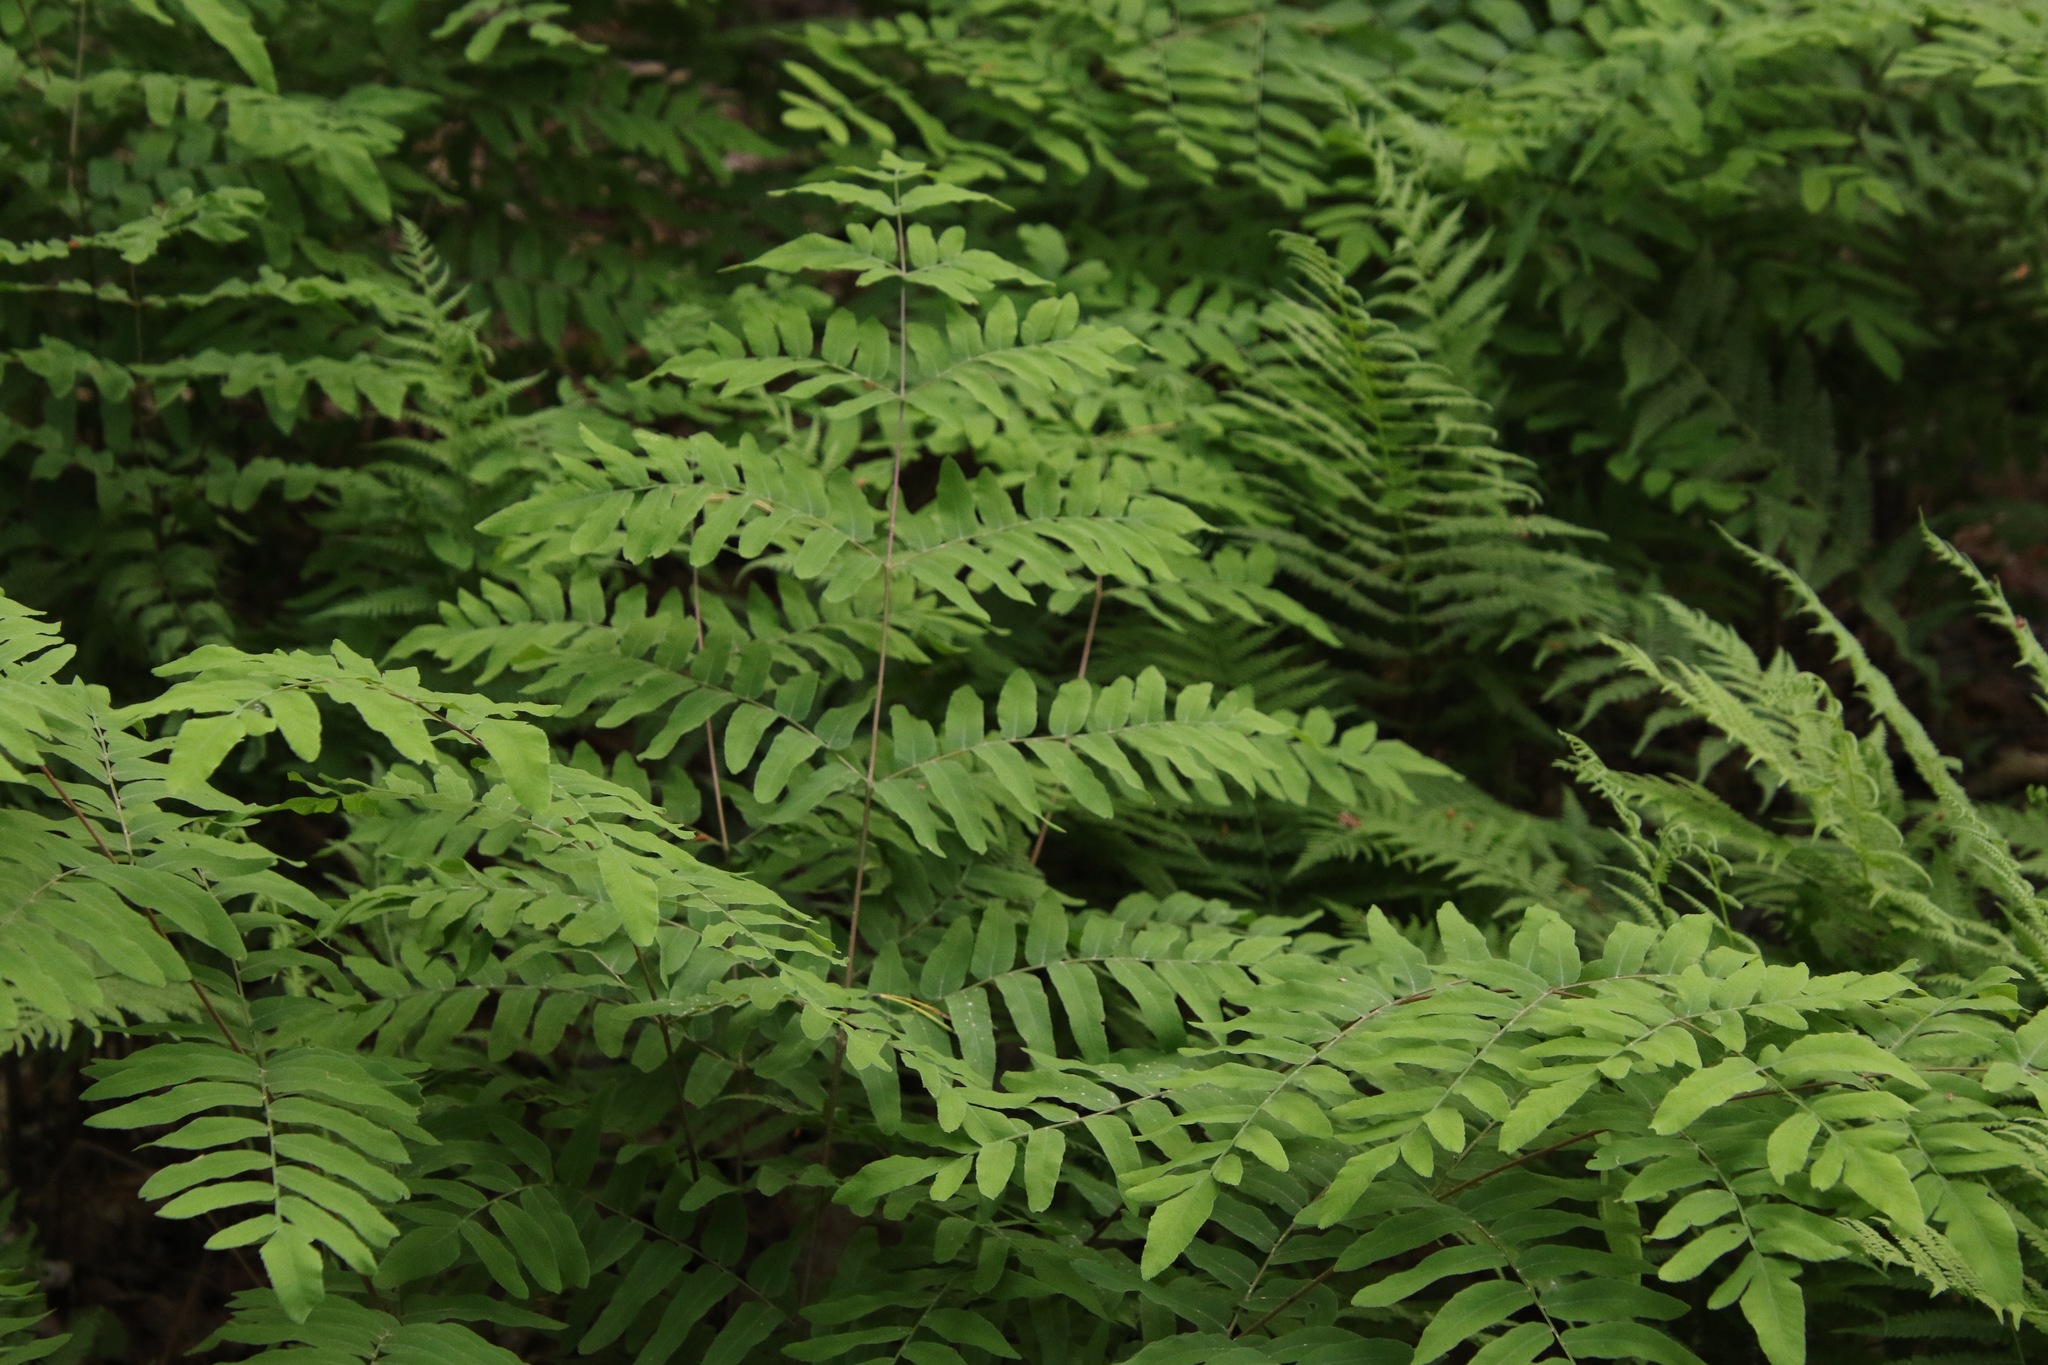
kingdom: Plantae
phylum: Tracheophyta
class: Polypodiopsida
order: Osmundales
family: Osmundaceae
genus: Osmunda
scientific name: Osmunda spectabilis
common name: American royal fern
